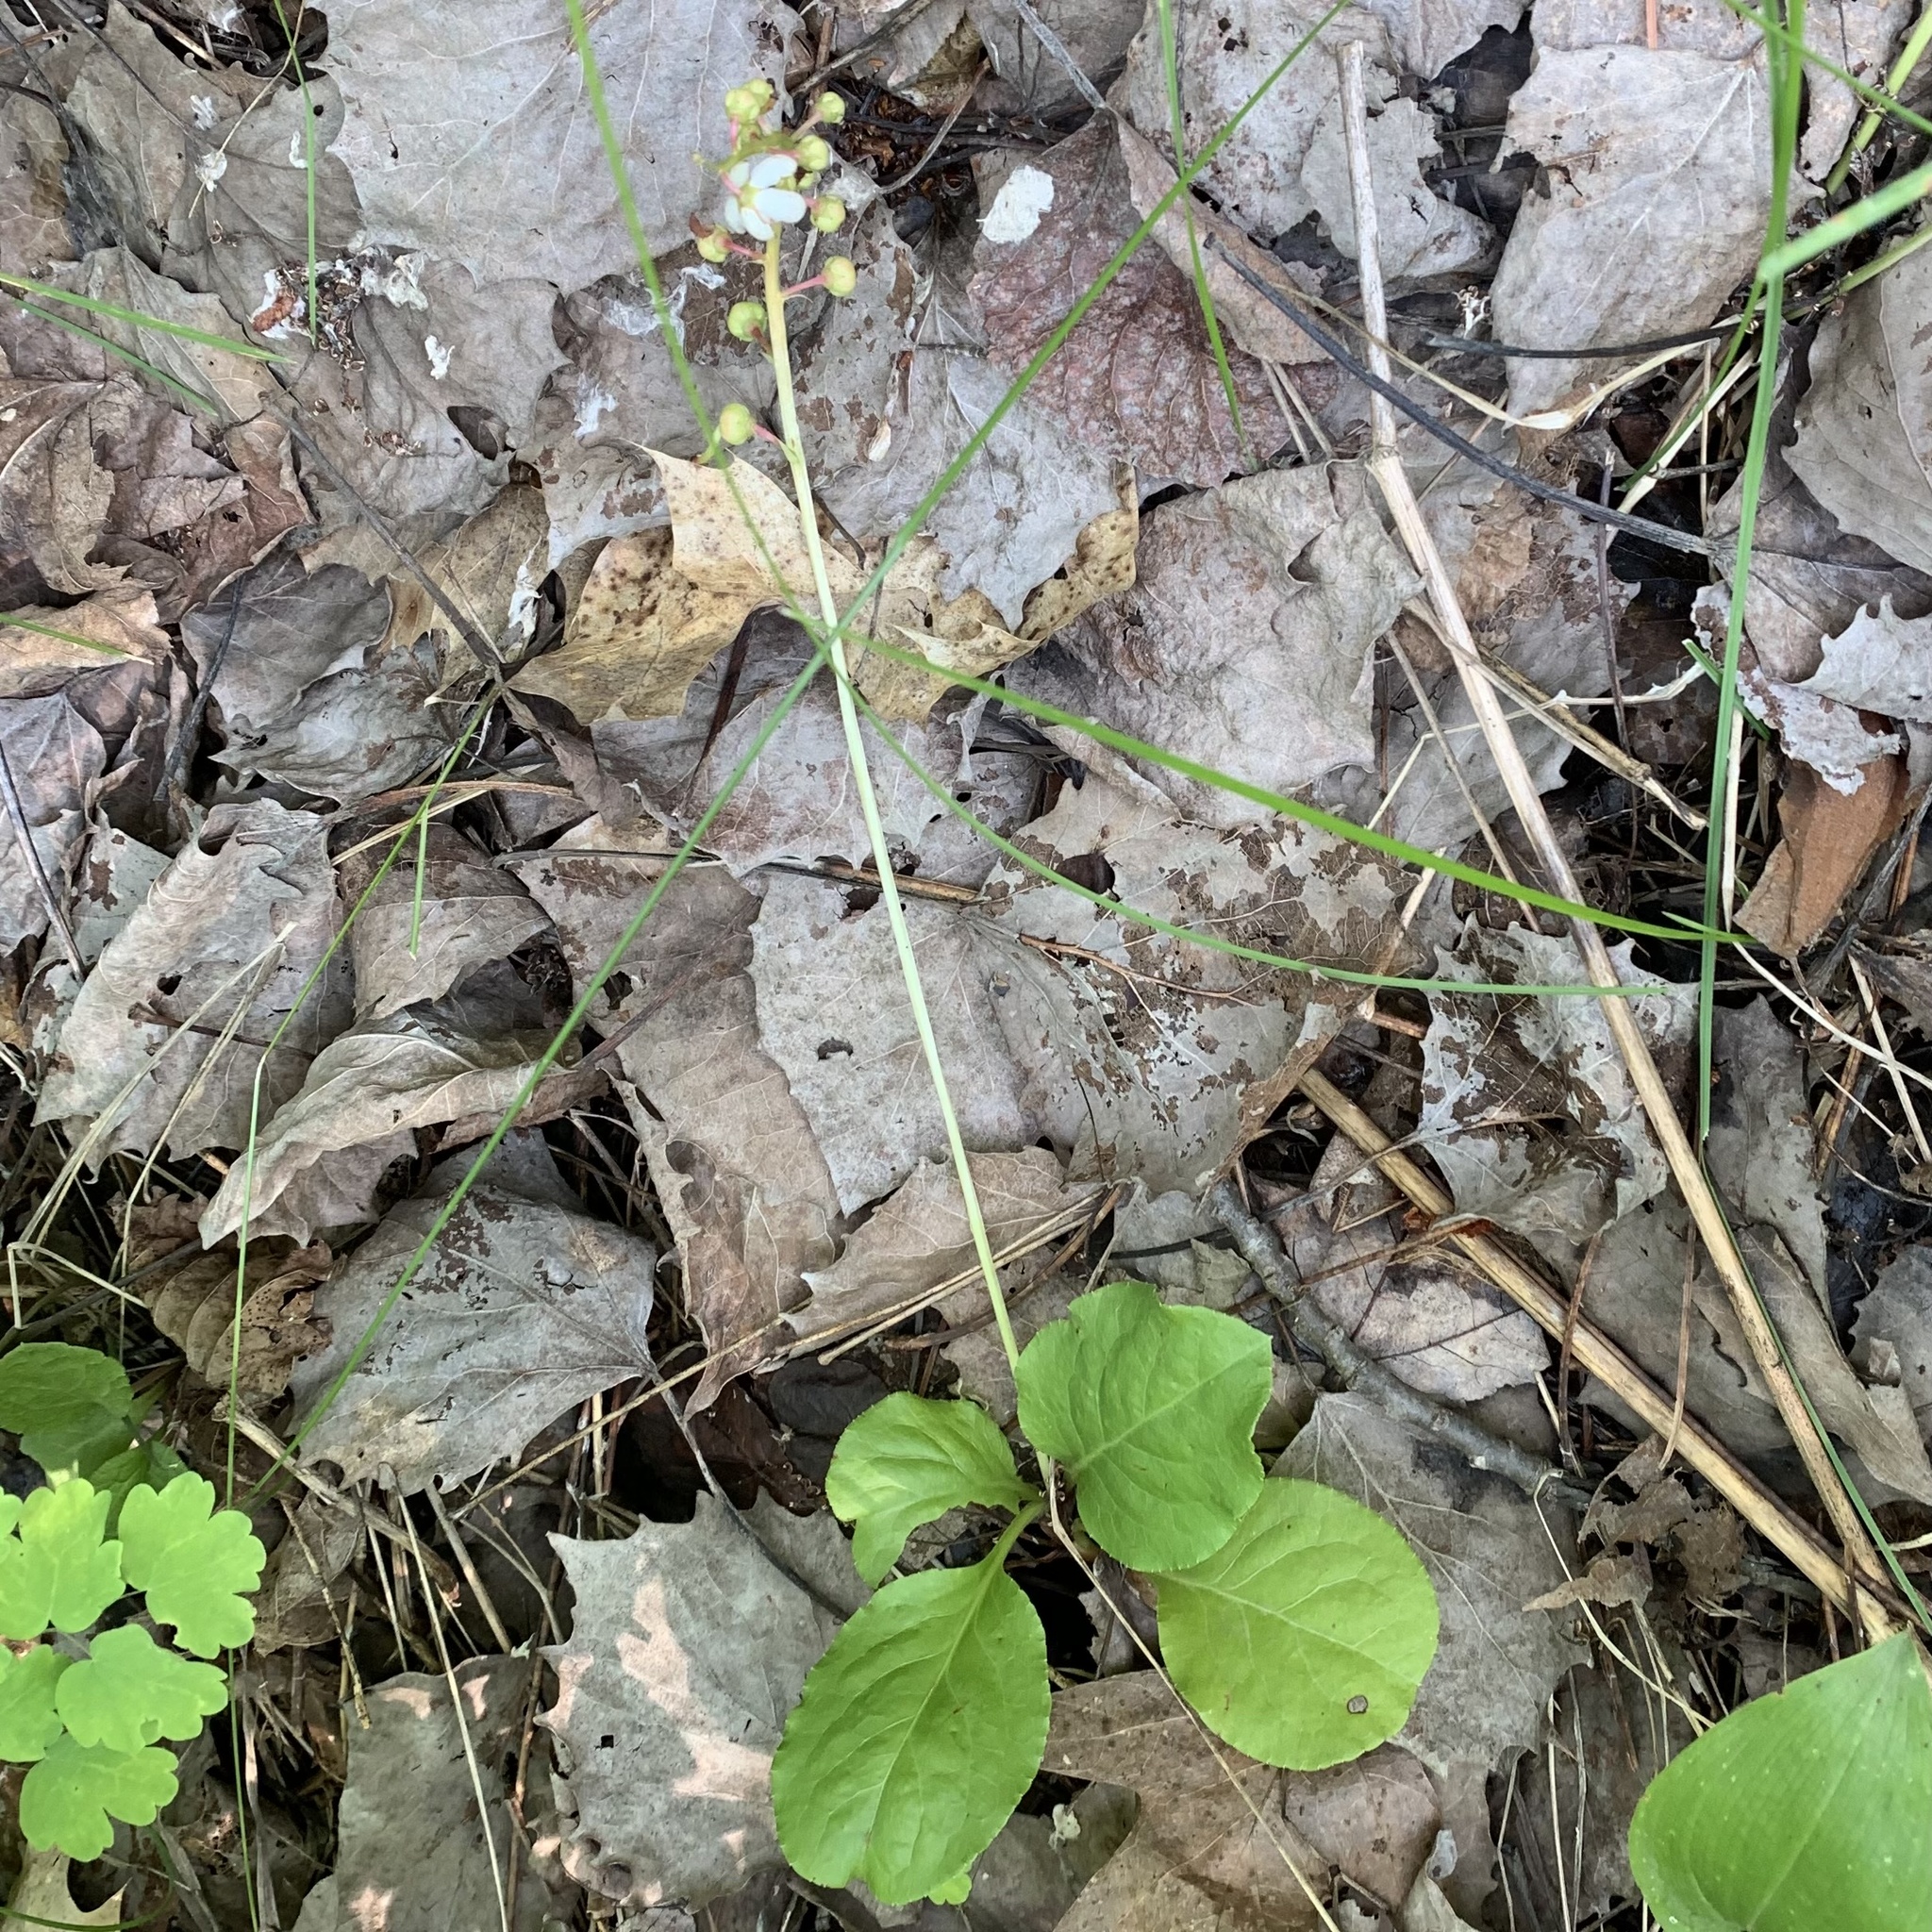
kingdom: Plantae
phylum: Tracheophyta
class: Magnoliopsida
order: Ericales
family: Ericaceae
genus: Pyrola
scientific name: Pyrola elliptica
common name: Shinleaf
